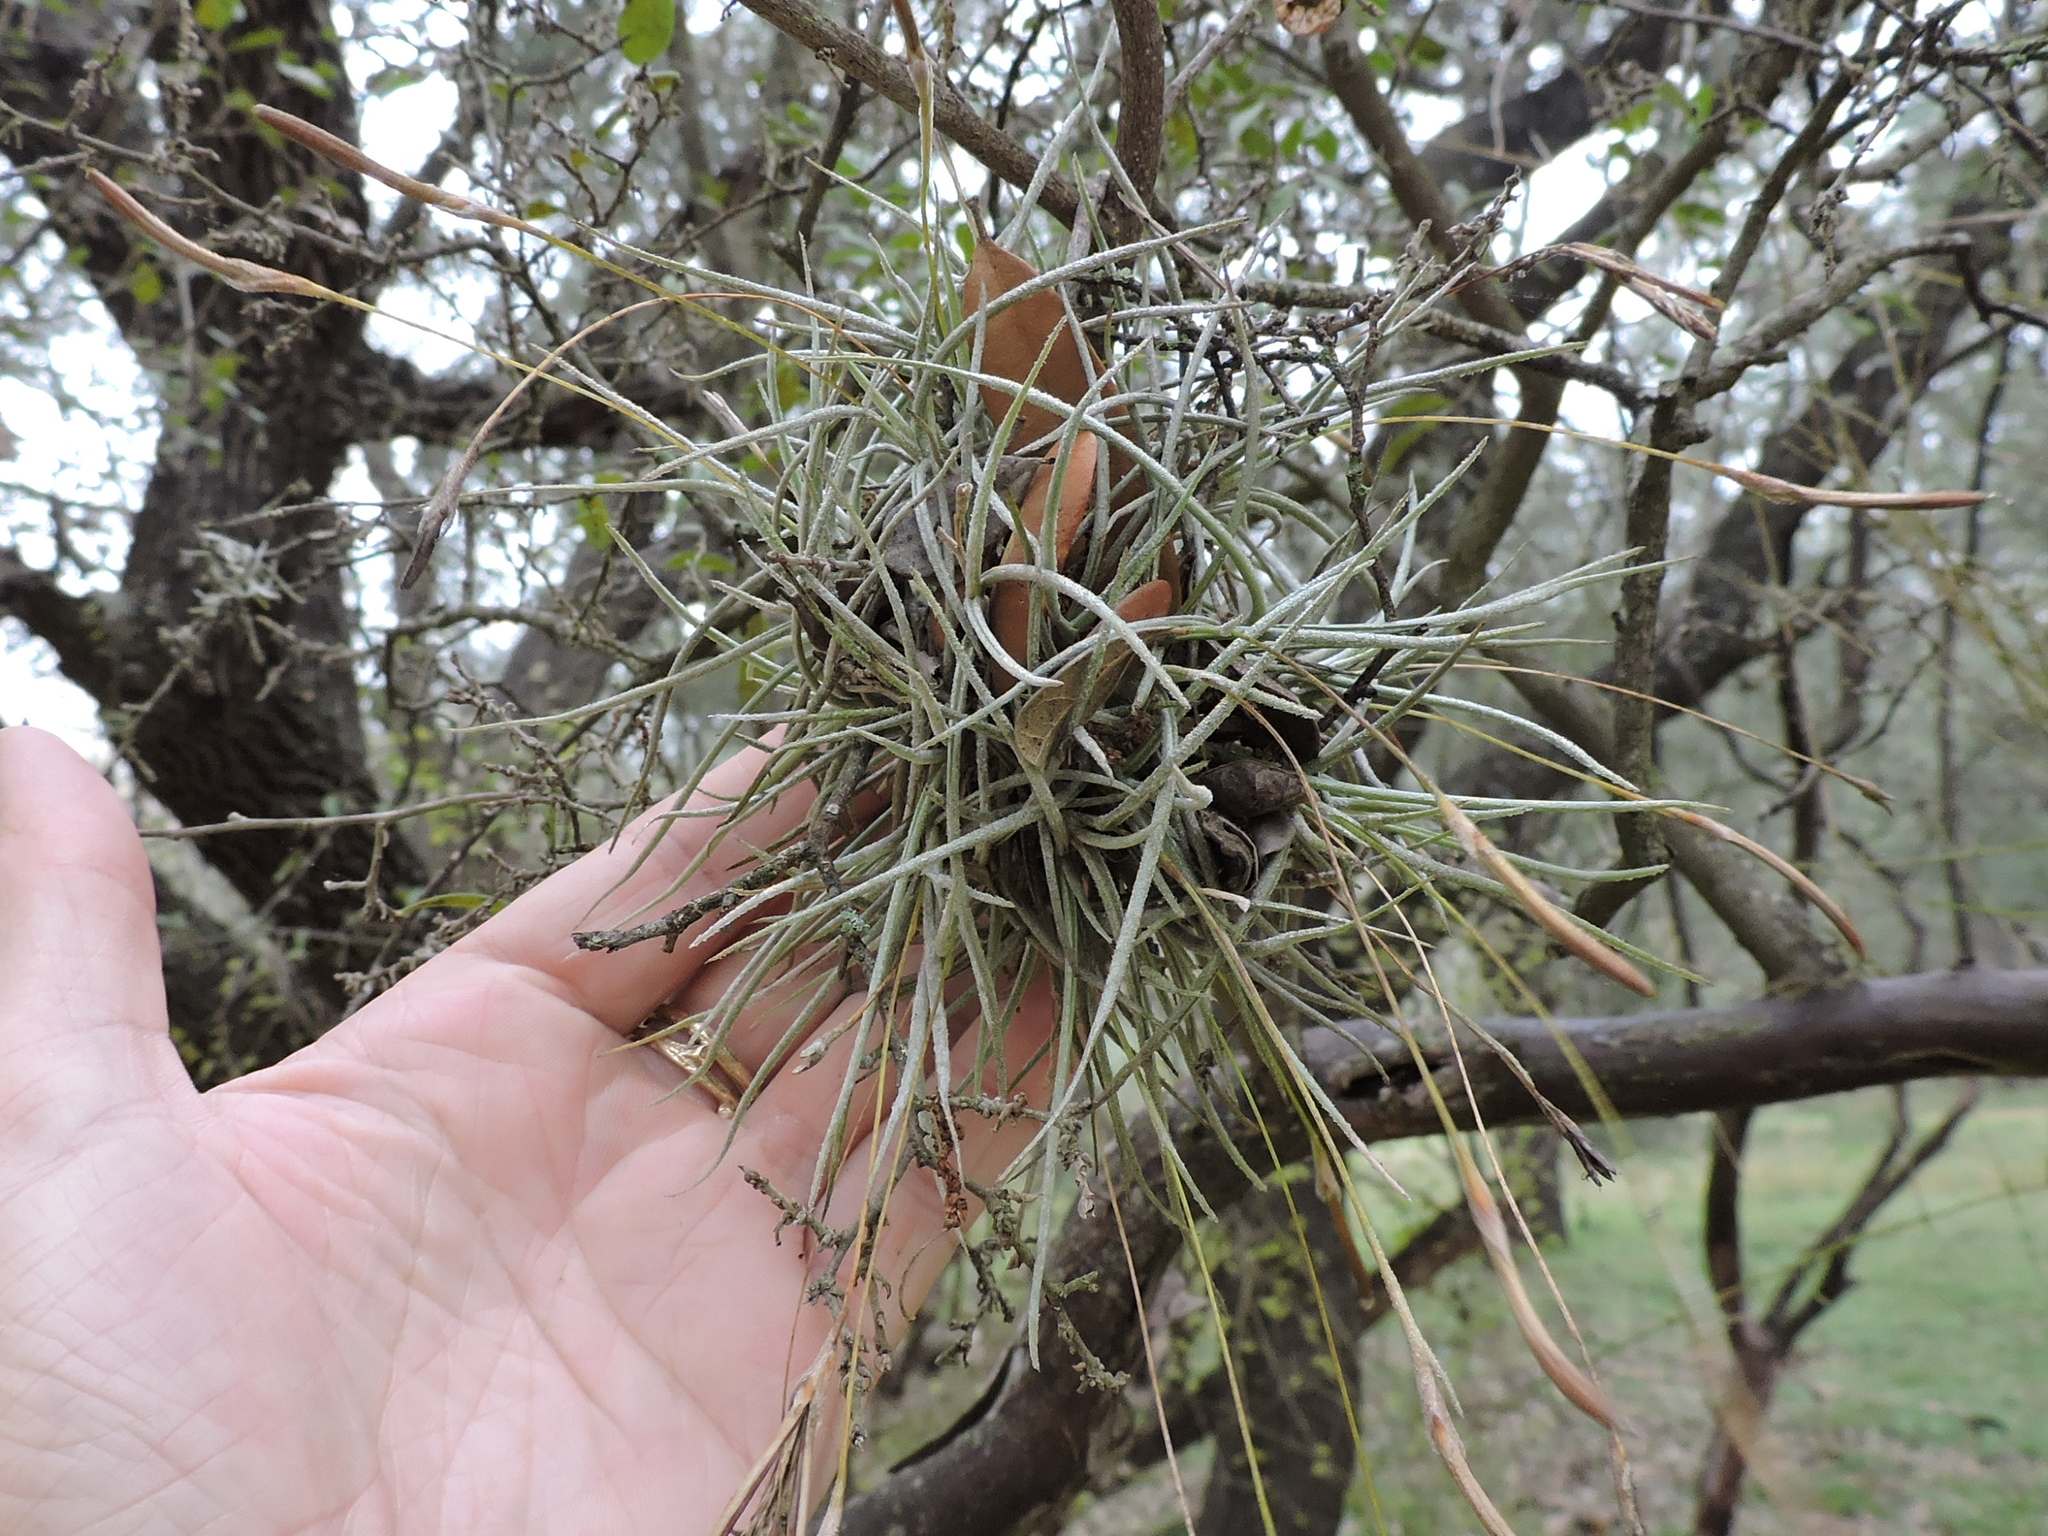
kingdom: Plantae
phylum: Tracheophyta
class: Liliopsida
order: Poales
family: Bromeliaceae
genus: Tillandsia
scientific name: Tillandsia recurvata
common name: Small ballmoss
